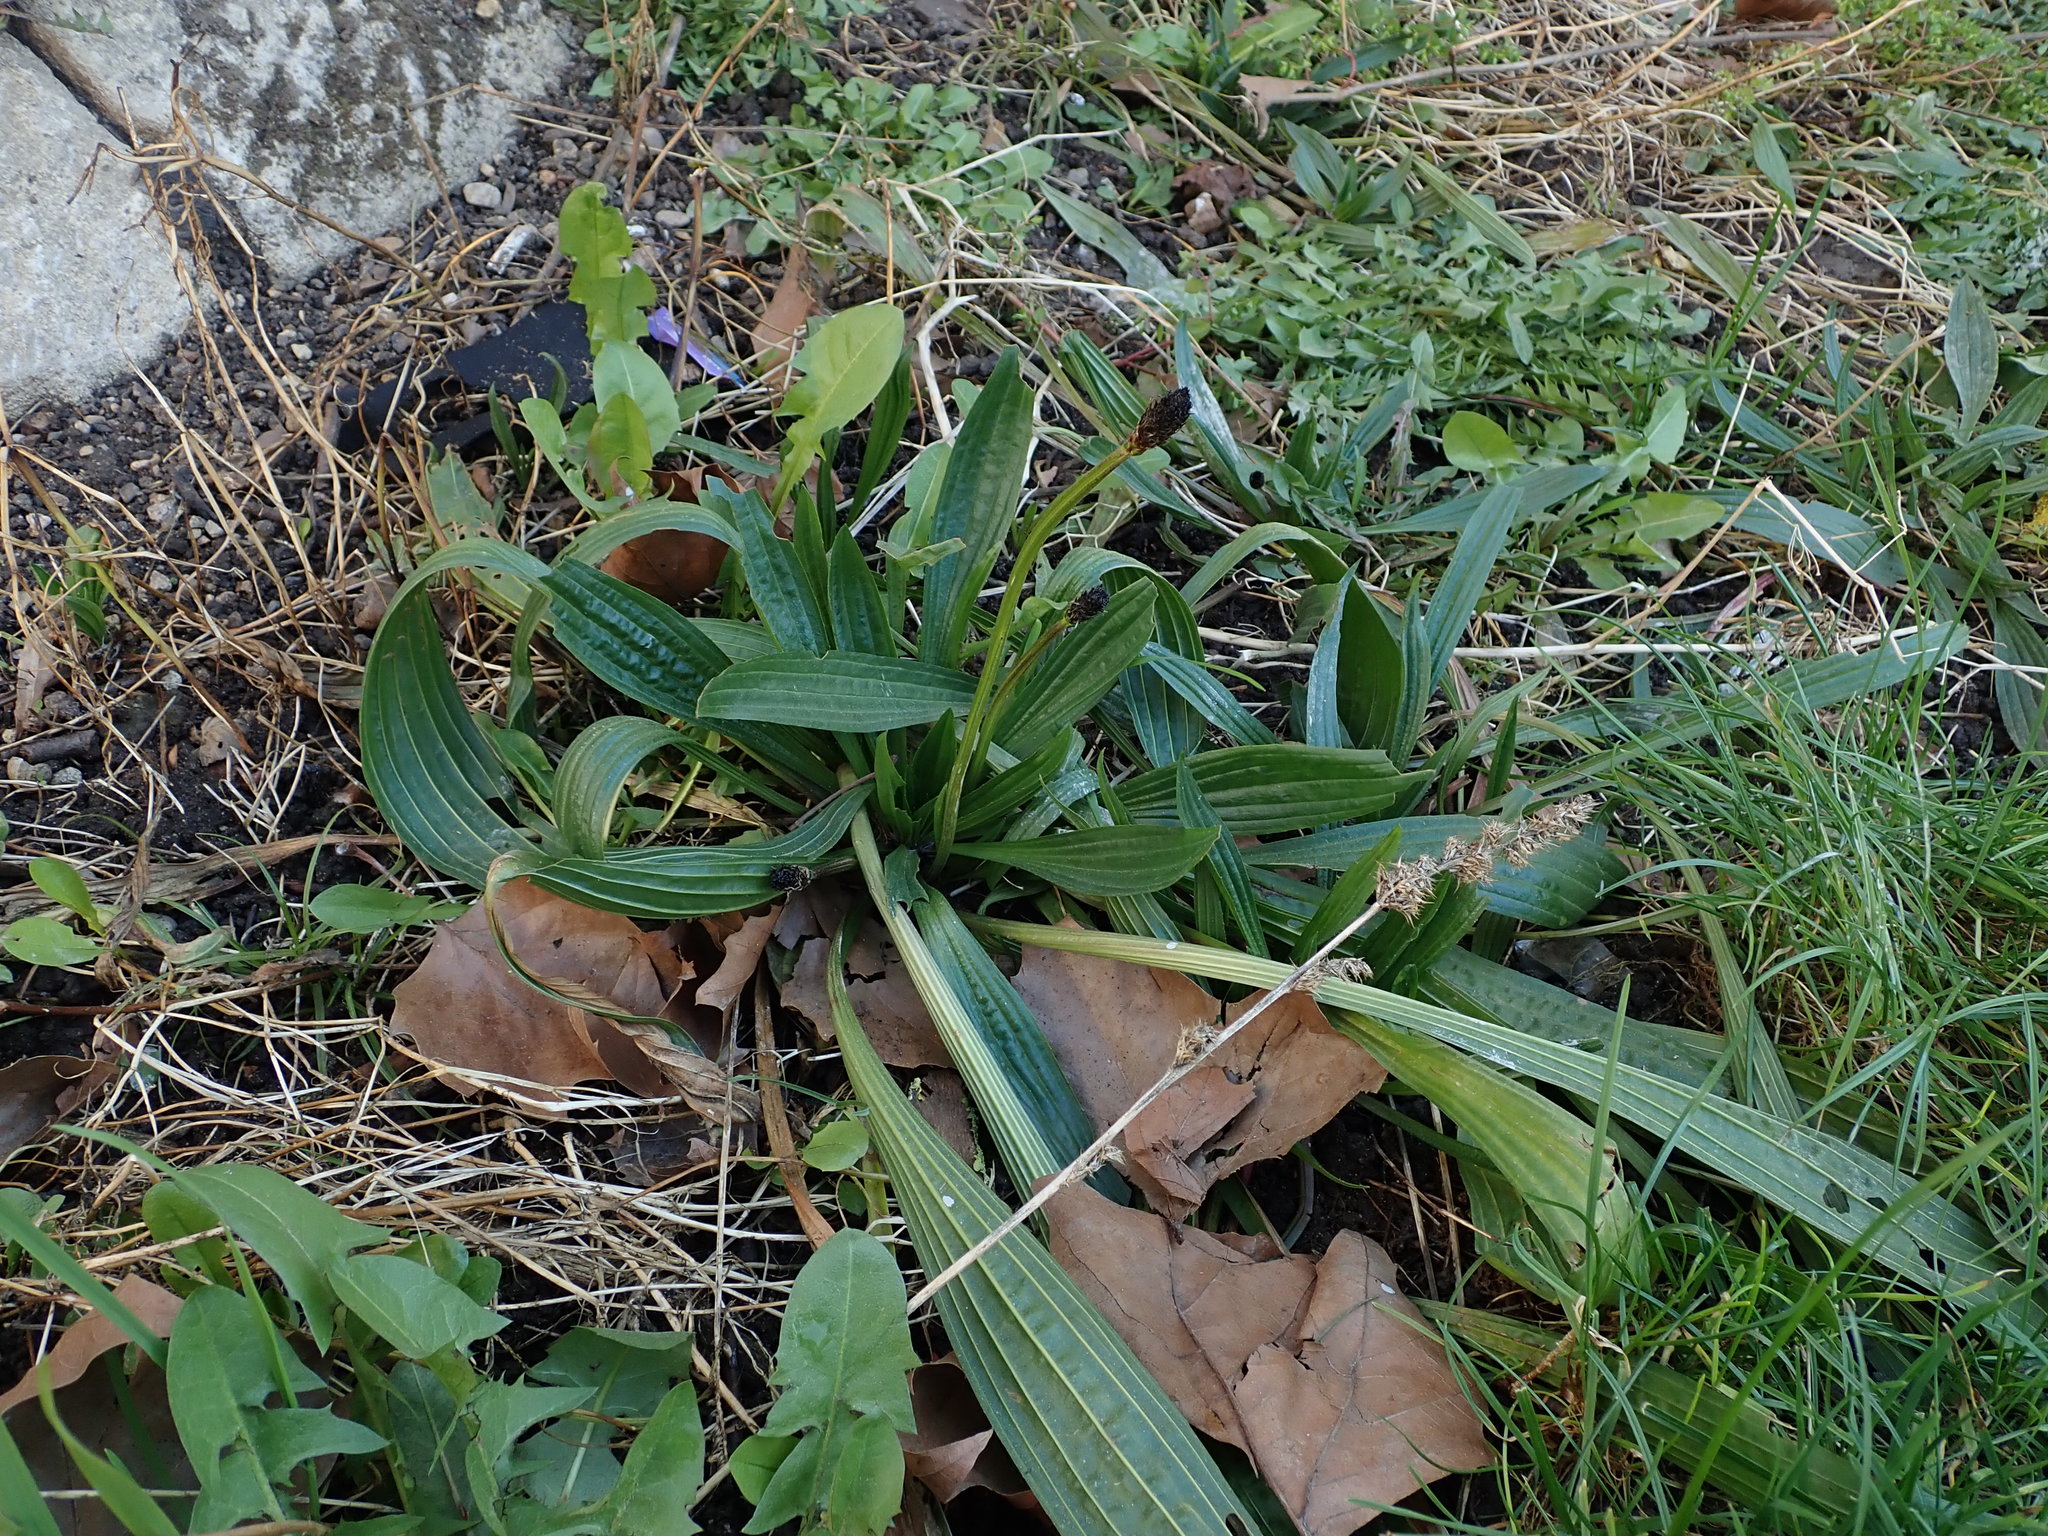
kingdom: Plantae
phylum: Tracheophyta
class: Magnoliopsida
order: Lamiales
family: Plantaginaceae
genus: Plantago
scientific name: Plantago lanceolata
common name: Ribwort plantain
